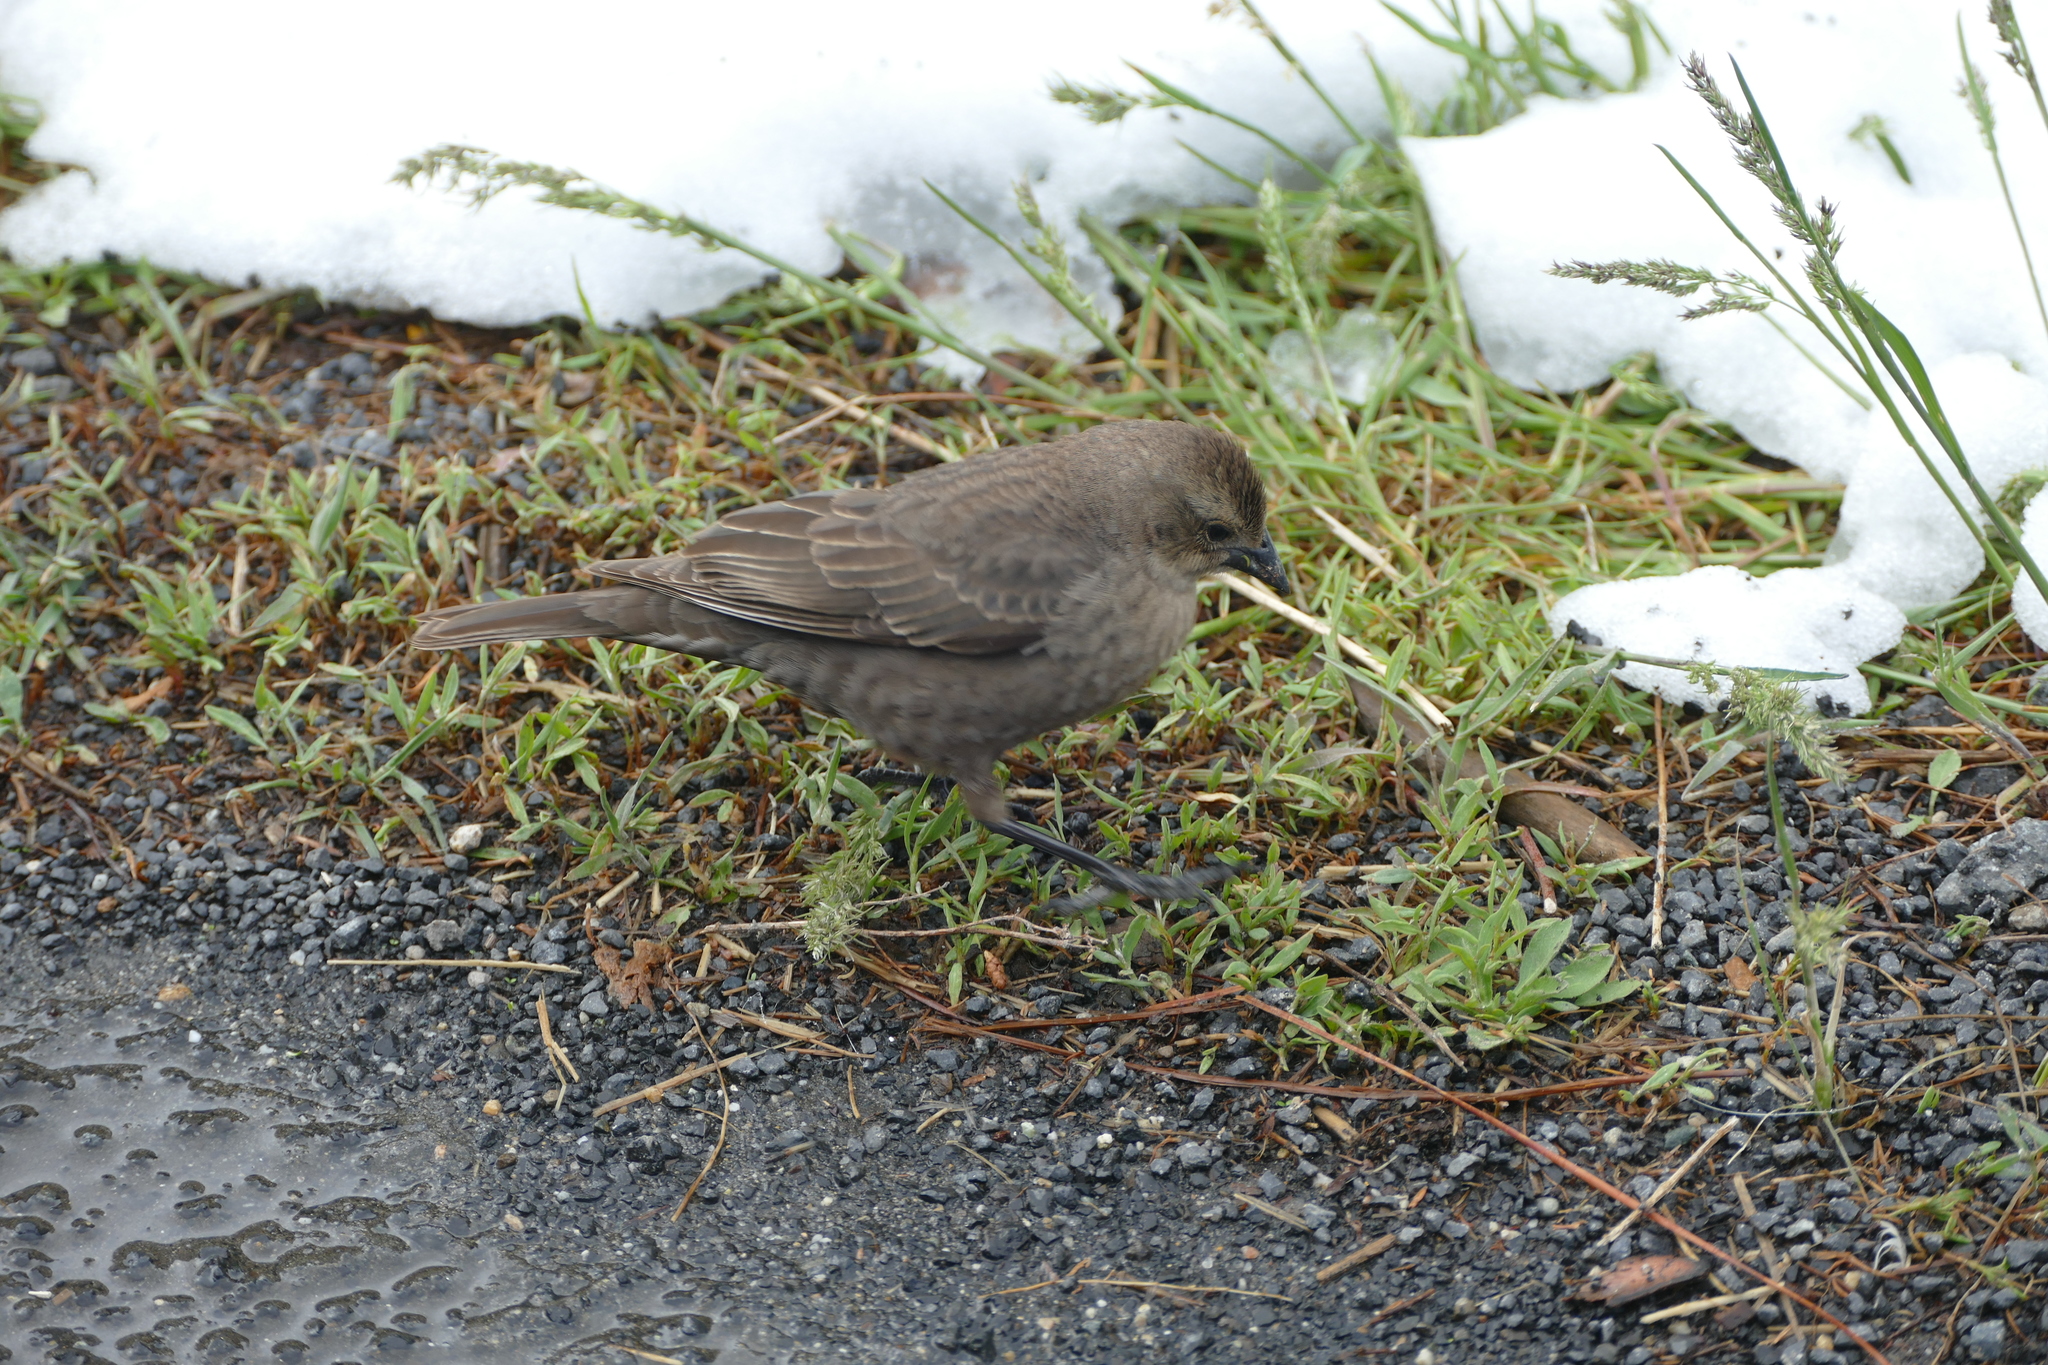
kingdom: Animalia
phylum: Chordata
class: Aves
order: Passeriformes
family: Icteridae
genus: Molothrus
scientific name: Molothrus ater
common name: Brown-headed cowbird
